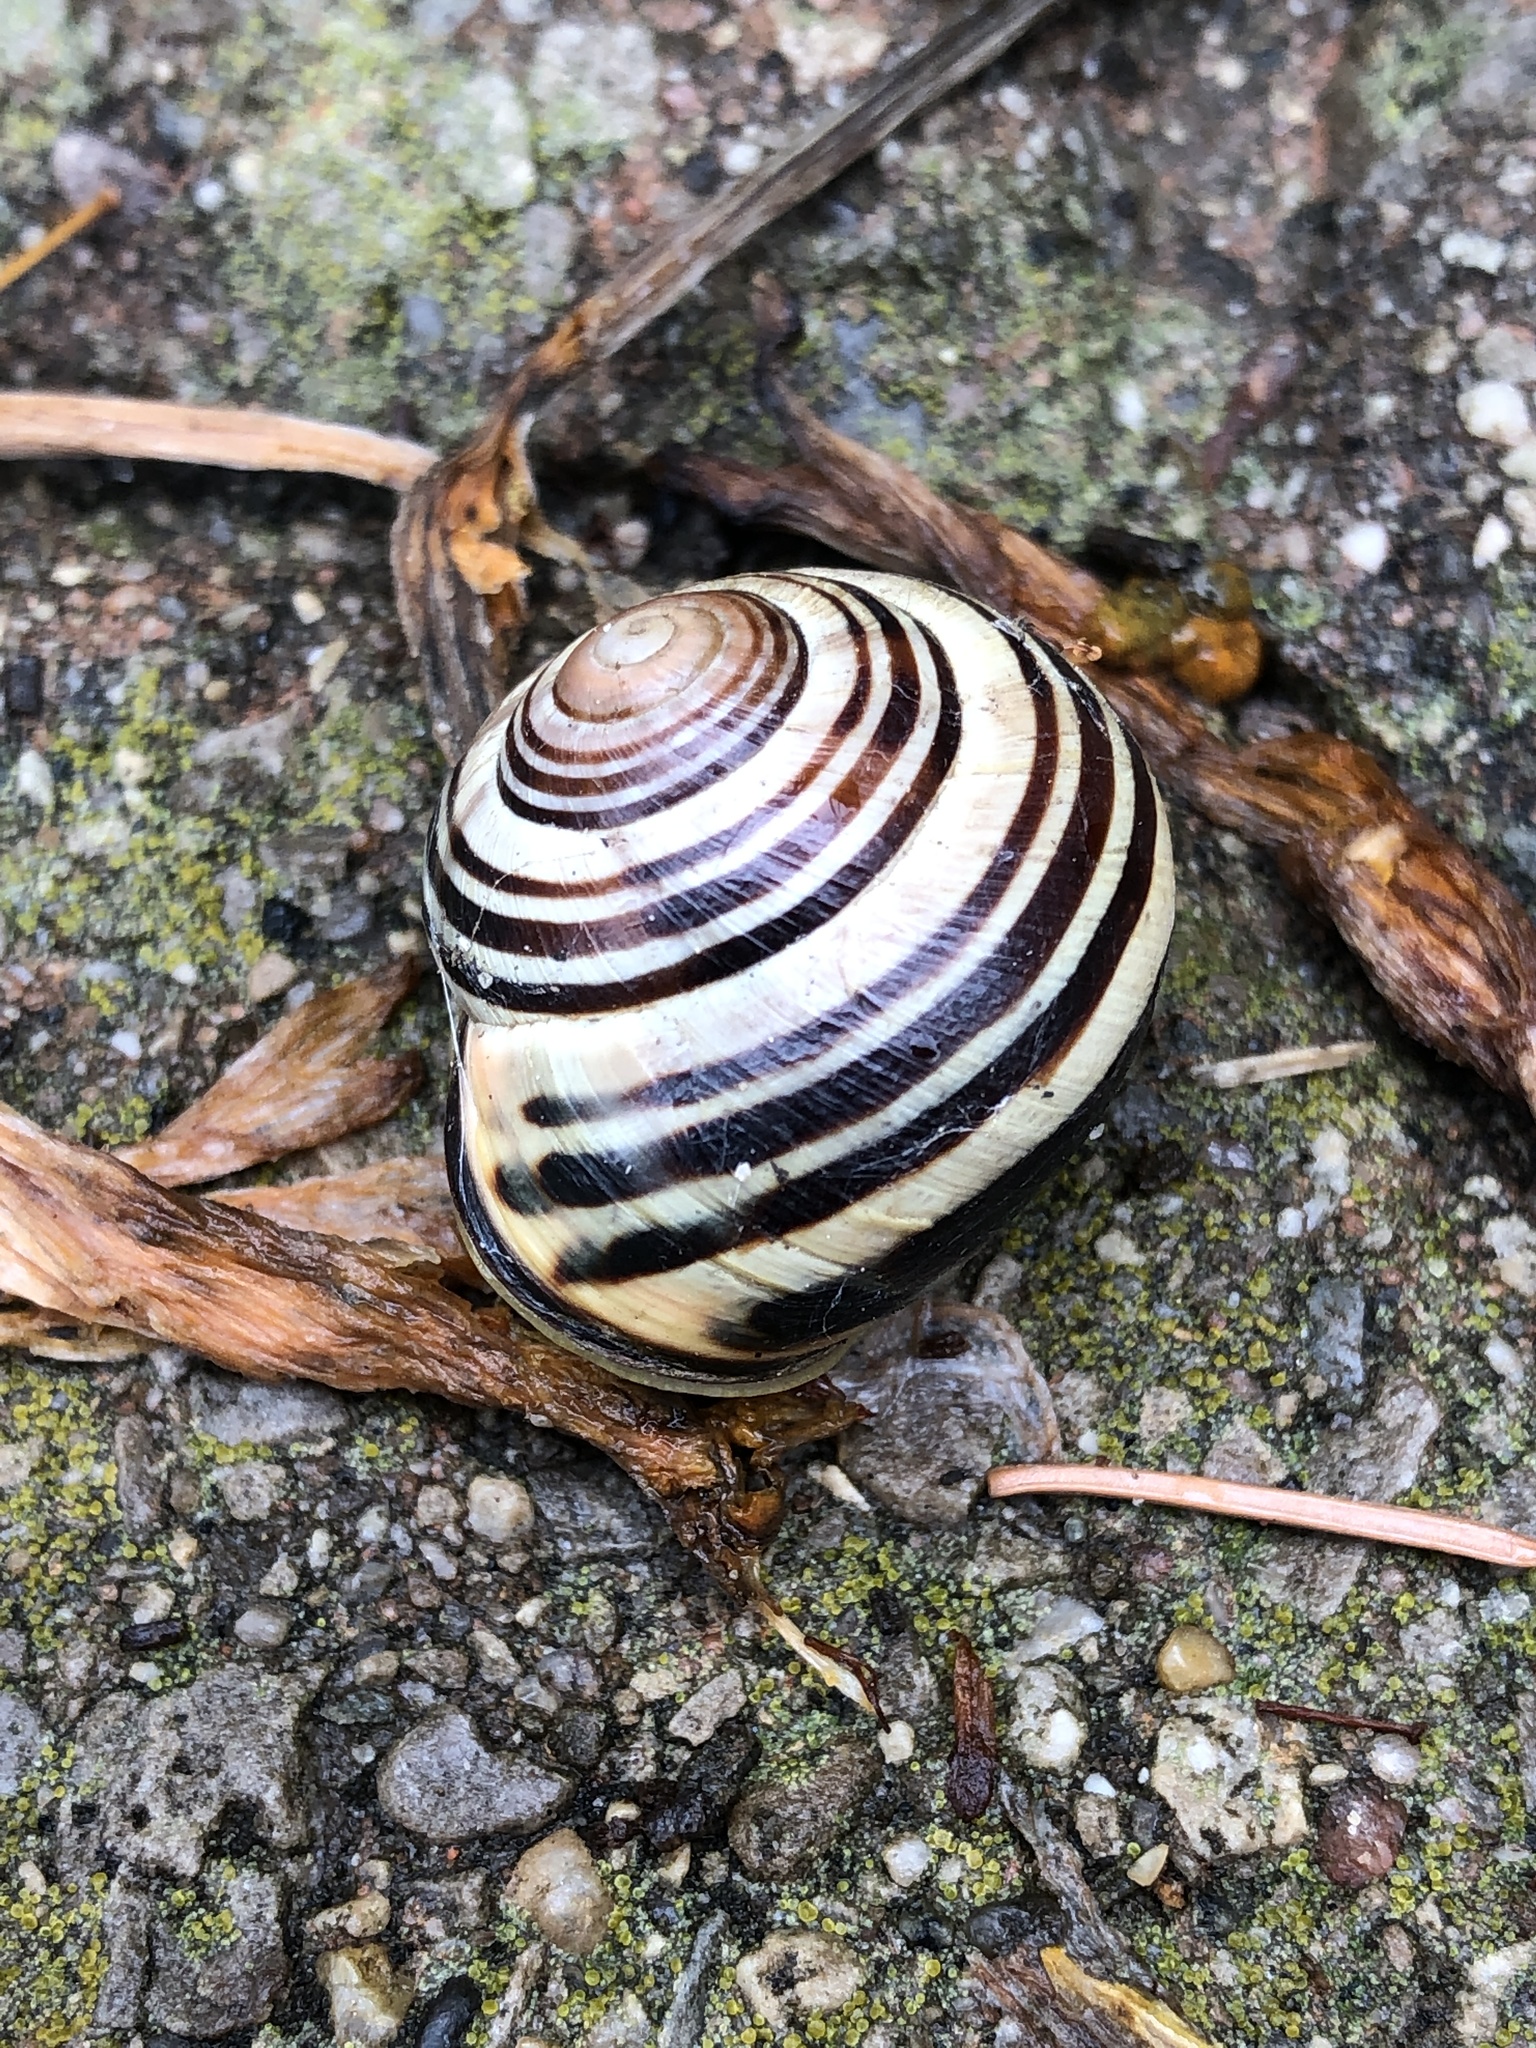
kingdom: Animalia
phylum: Mollusca
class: Gastropoda
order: Stylommatophora
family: Helicidae
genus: Cepaea
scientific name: Cepaea nemoralis
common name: Grovesnail
